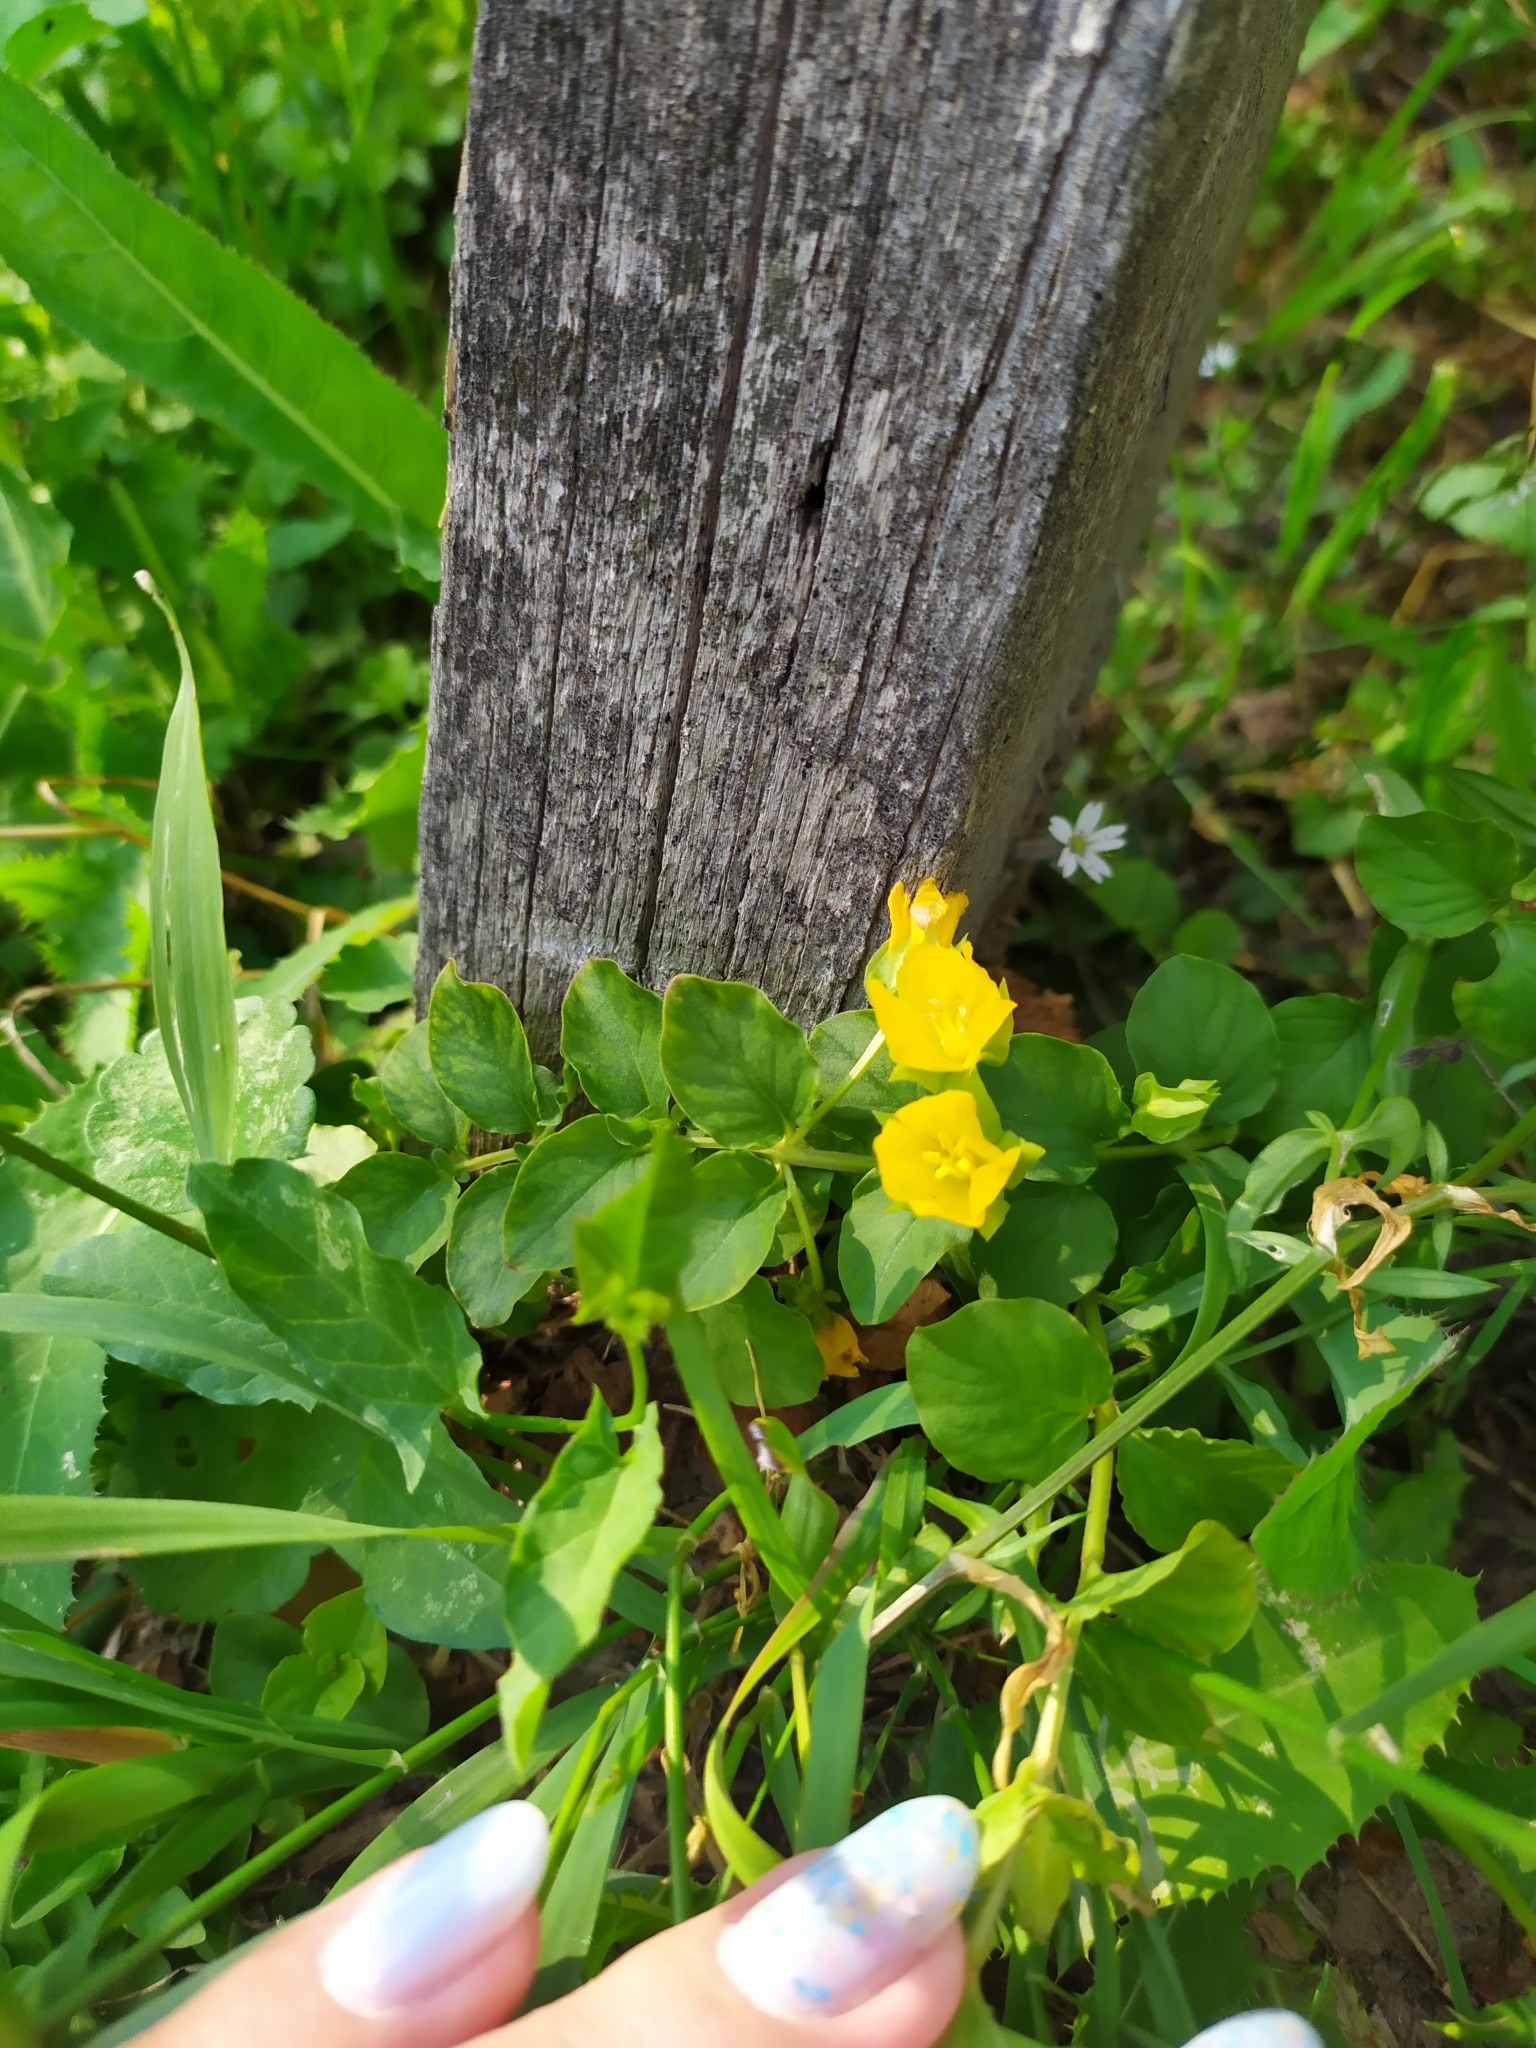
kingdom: Plantae
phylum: Tracheophyta
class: Magnoliopsida
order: Ericales
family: Primulaceae
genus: Lysimachia
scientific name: Lysimachia nummularia
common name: Moneywort
